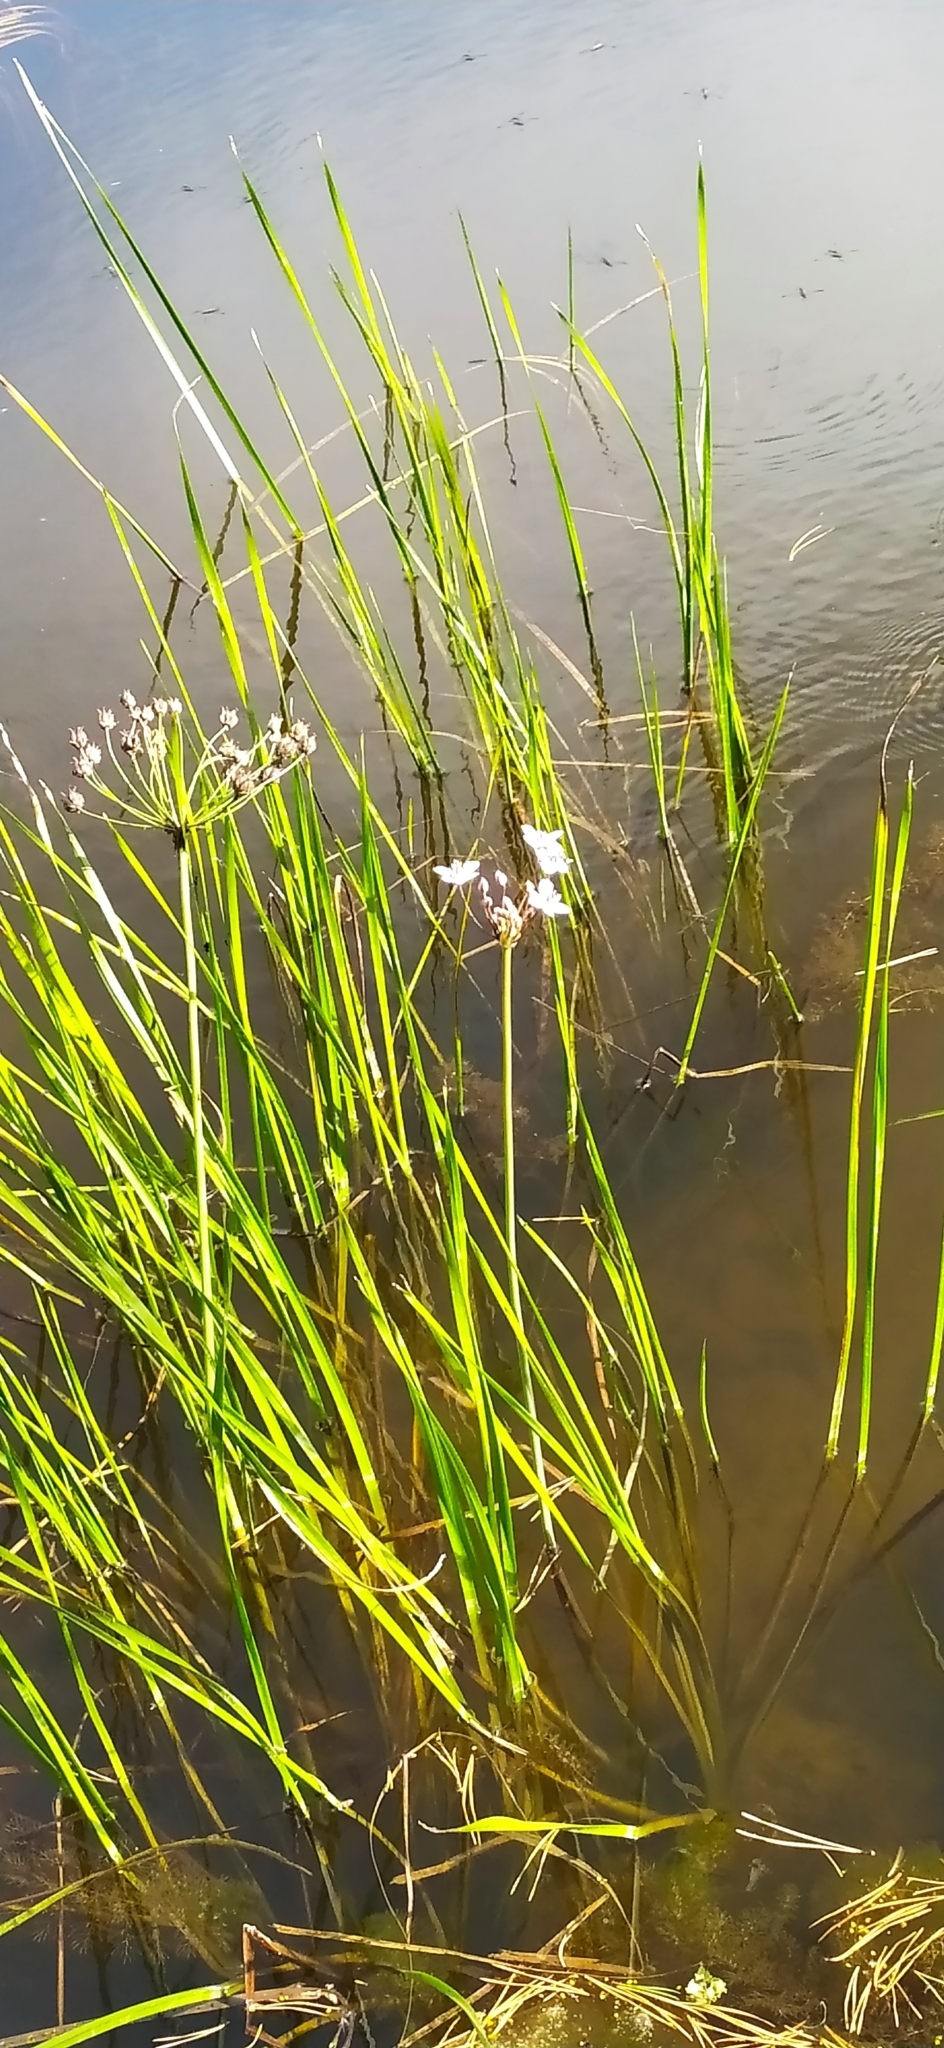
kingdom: Plantae
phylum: Tracheophyta
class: Liliopsida
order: Alismatales
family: Butomaceae
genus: Butomus
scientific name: Butomus umbellatus
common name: Flowering-rush
